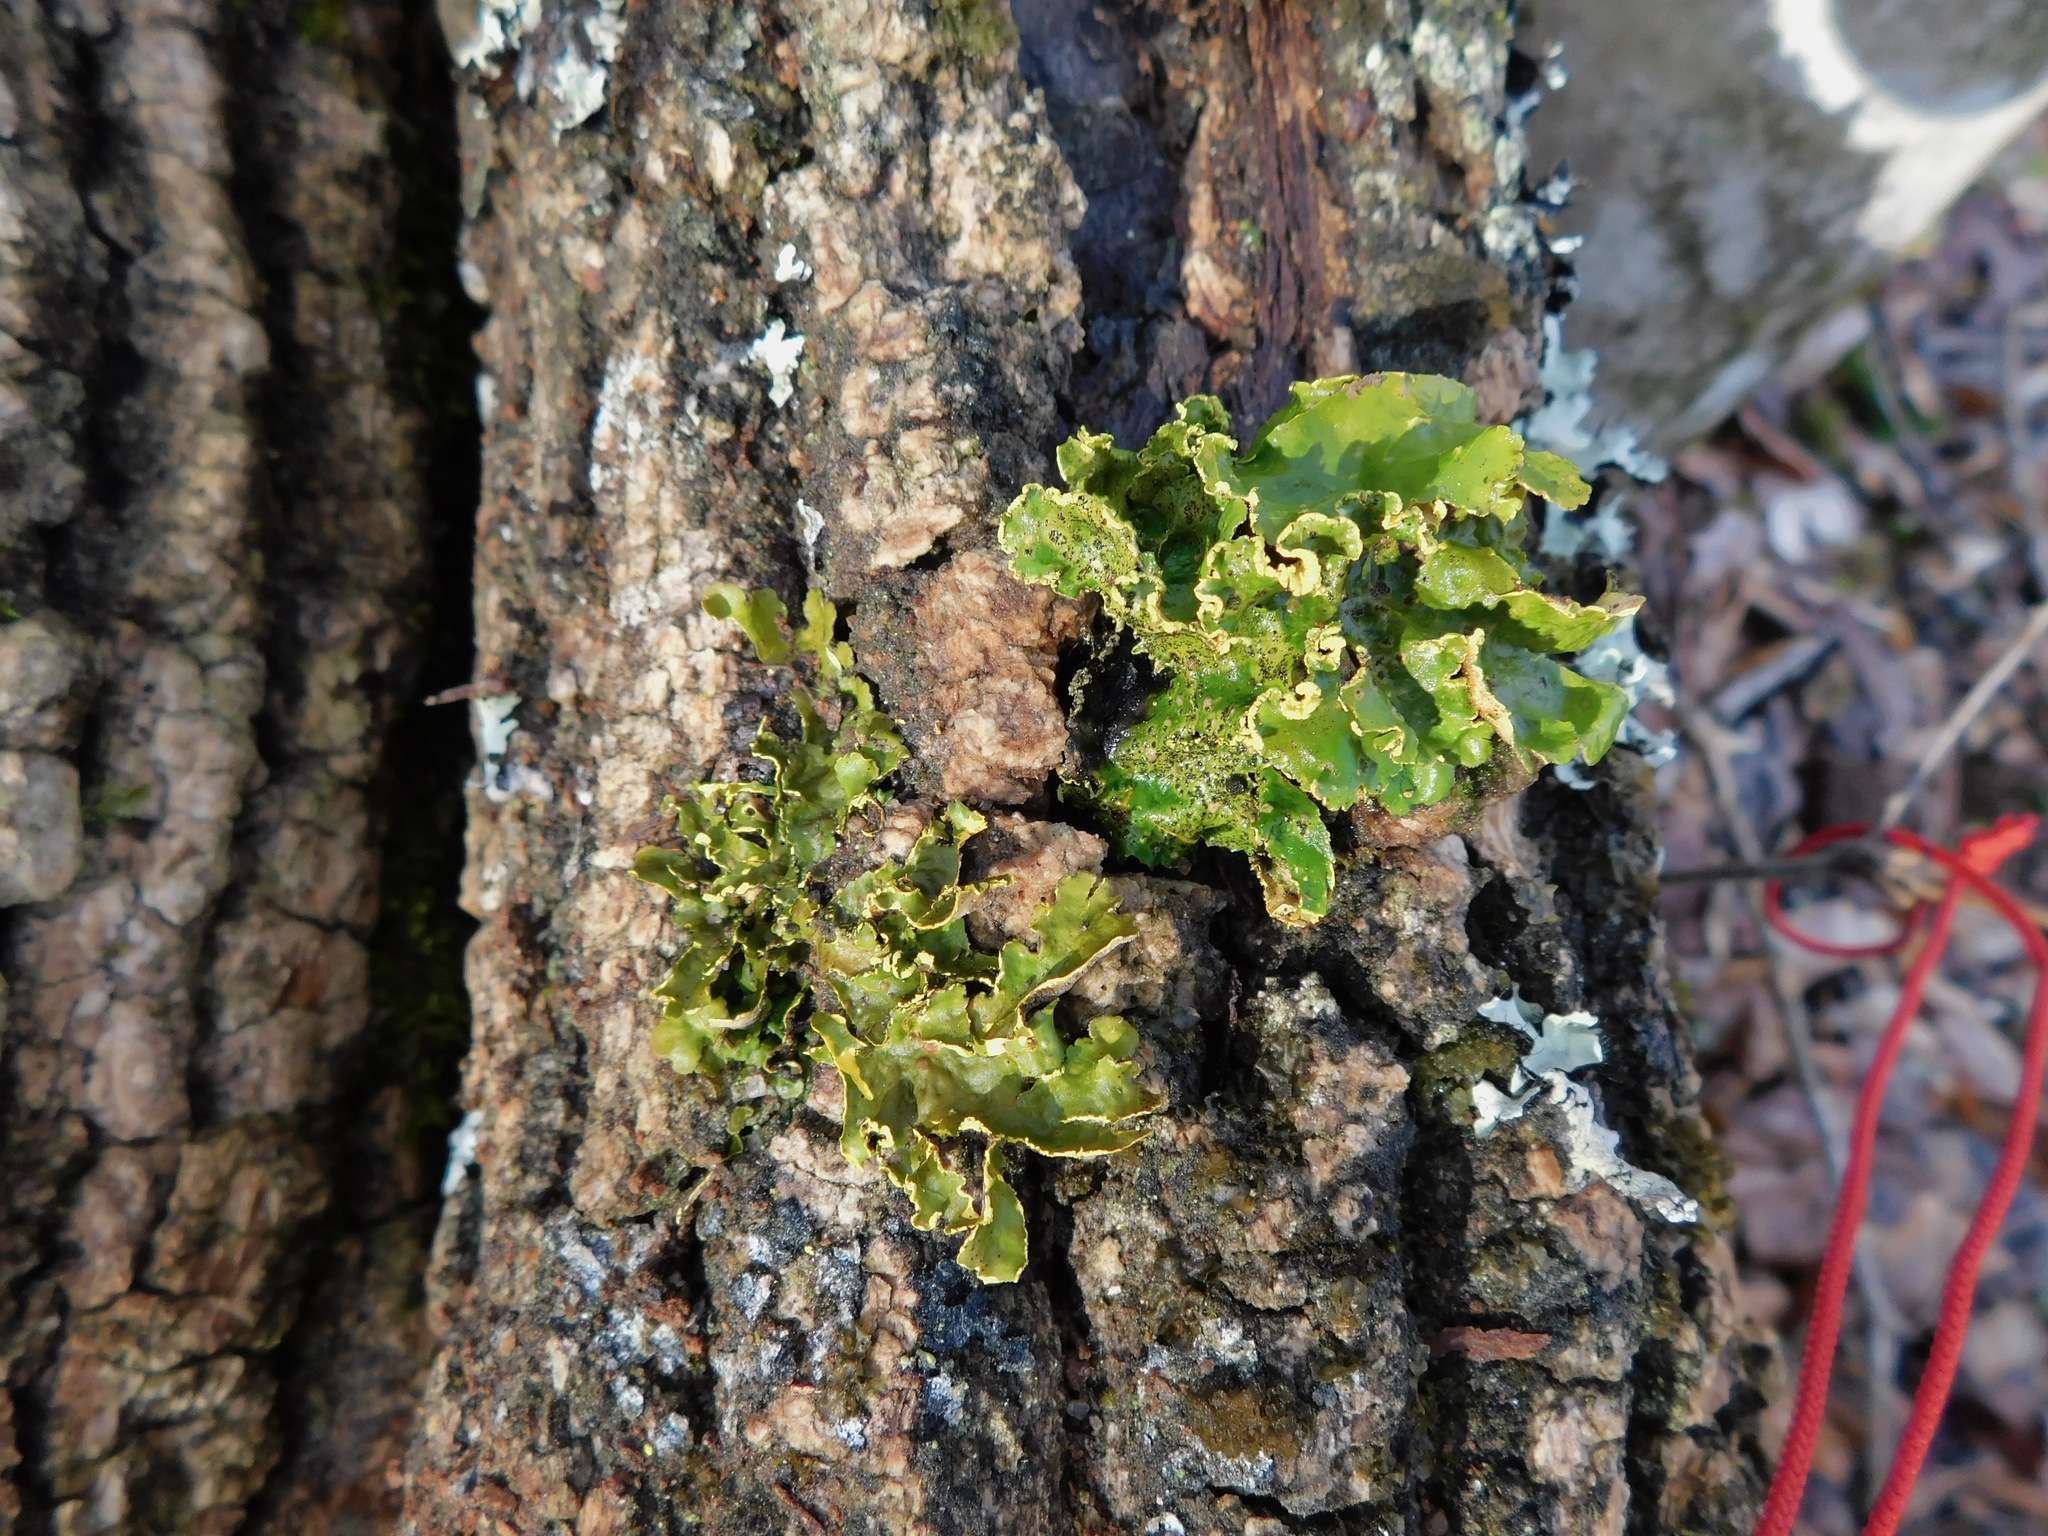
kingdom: Fungi
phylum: Ascomycota
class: Lecanoromycetes
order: Peltigerales
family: Lobariaceae
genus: Pseudocyphellaria
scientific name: Pseudocyphellaria aurata
